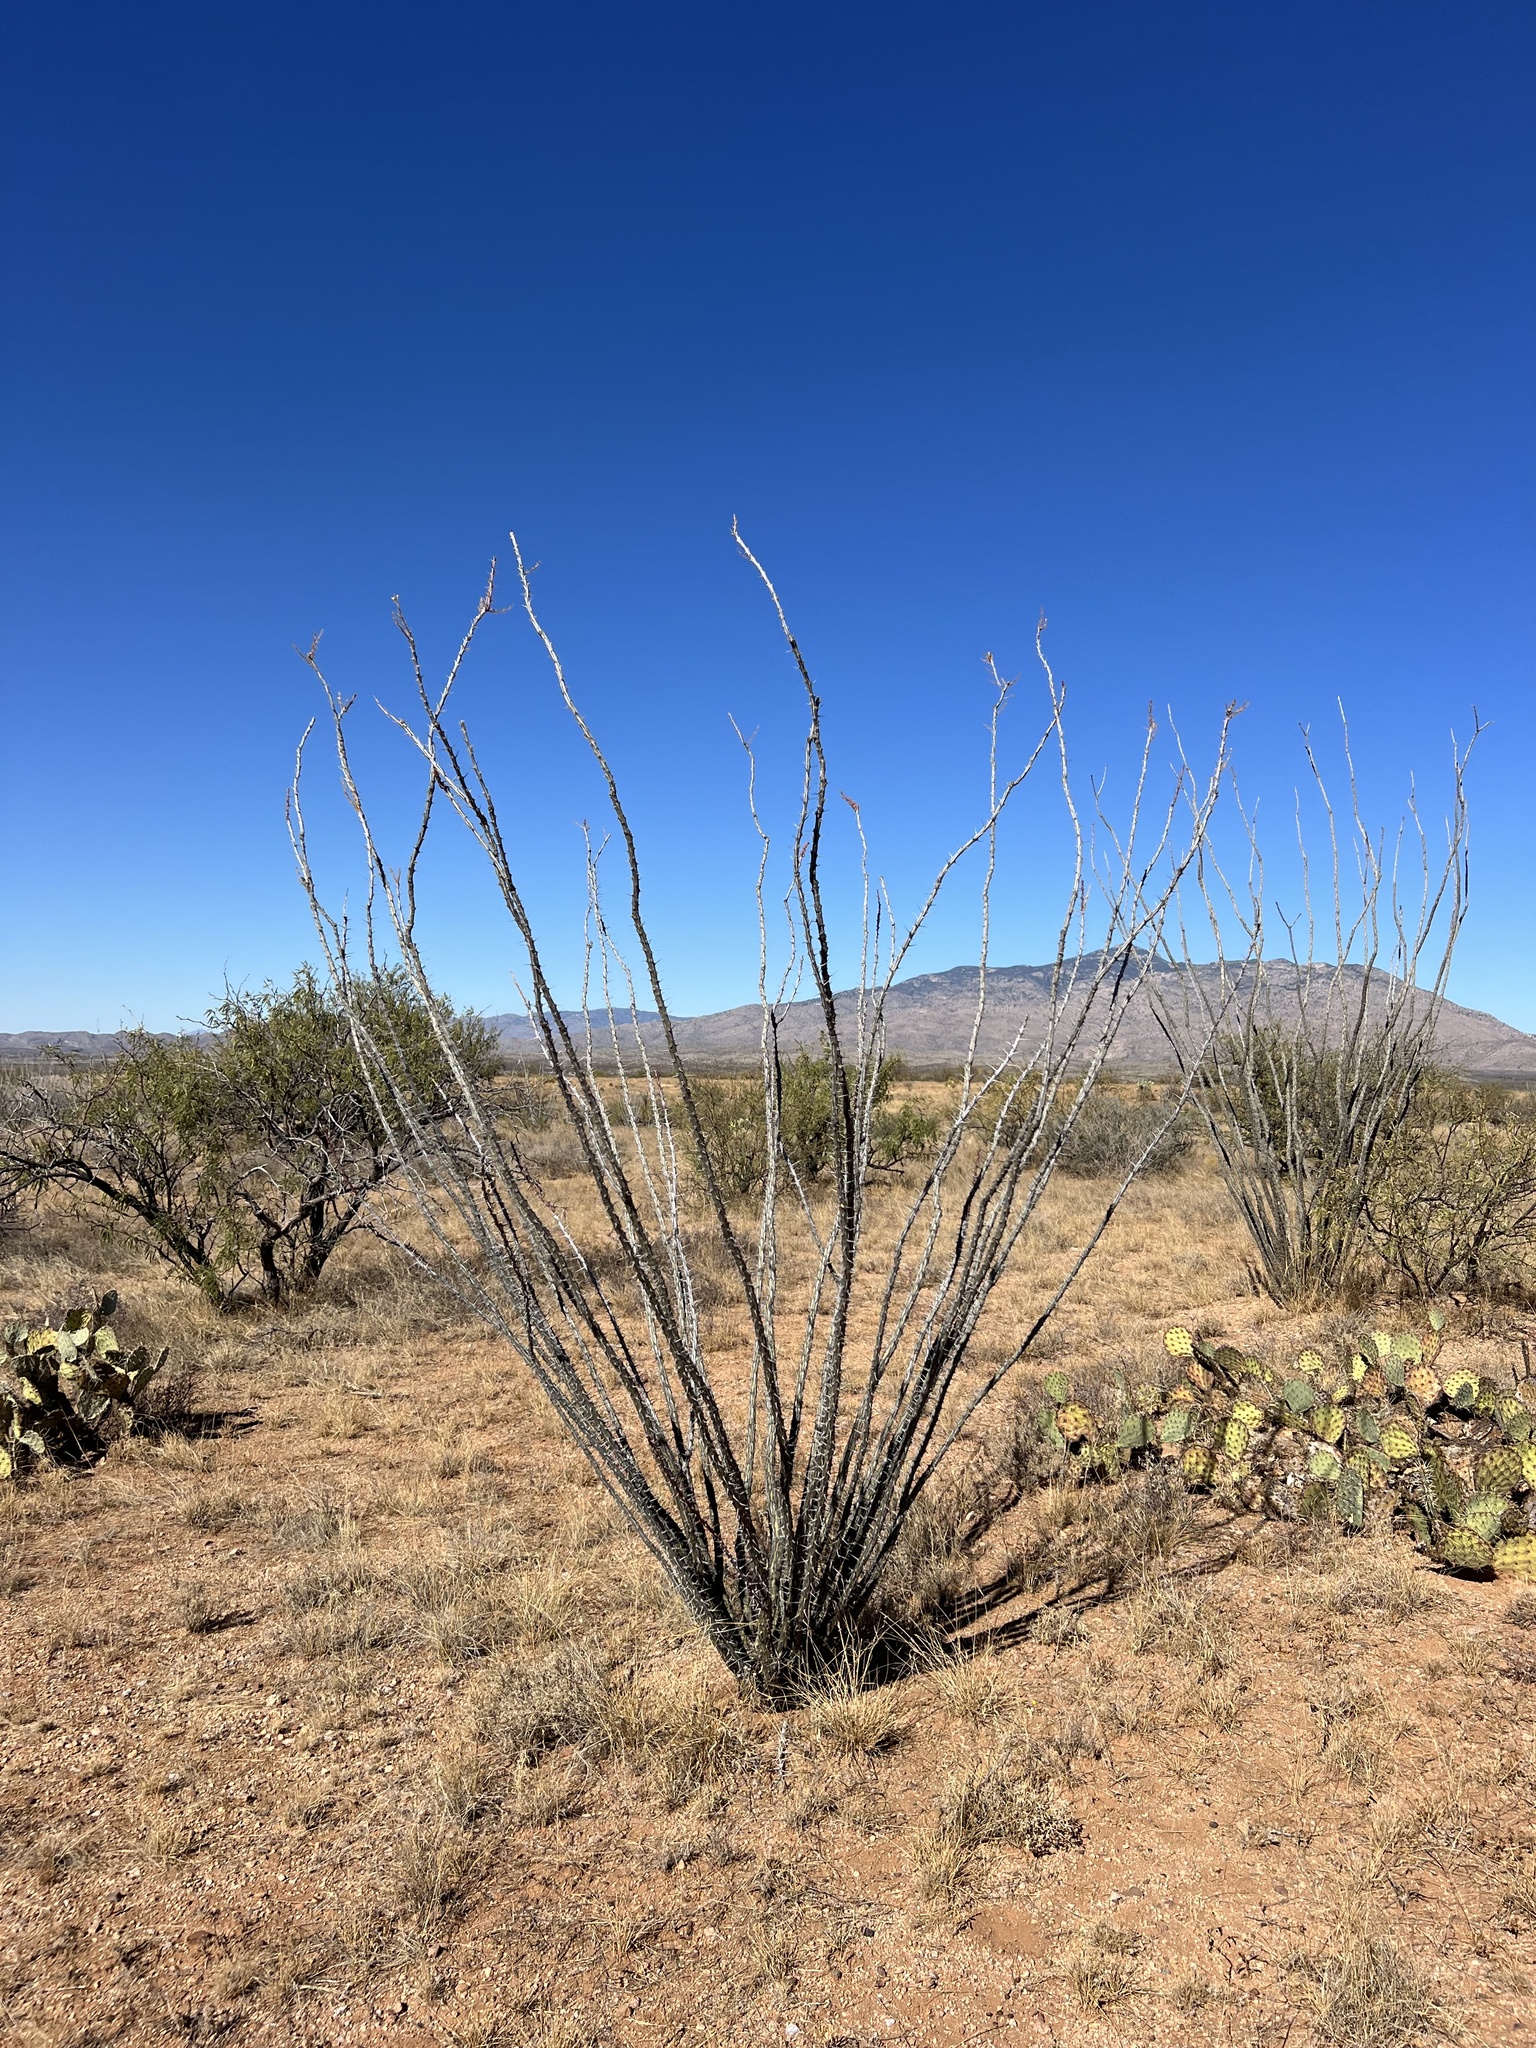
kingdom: Plantae
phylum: Tracheophyta
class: Magnoliopsida
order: Ericales
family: Fouquieriaceae
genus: Fouquieria
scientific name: Fouquieria splendens
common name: Vine-cactus
